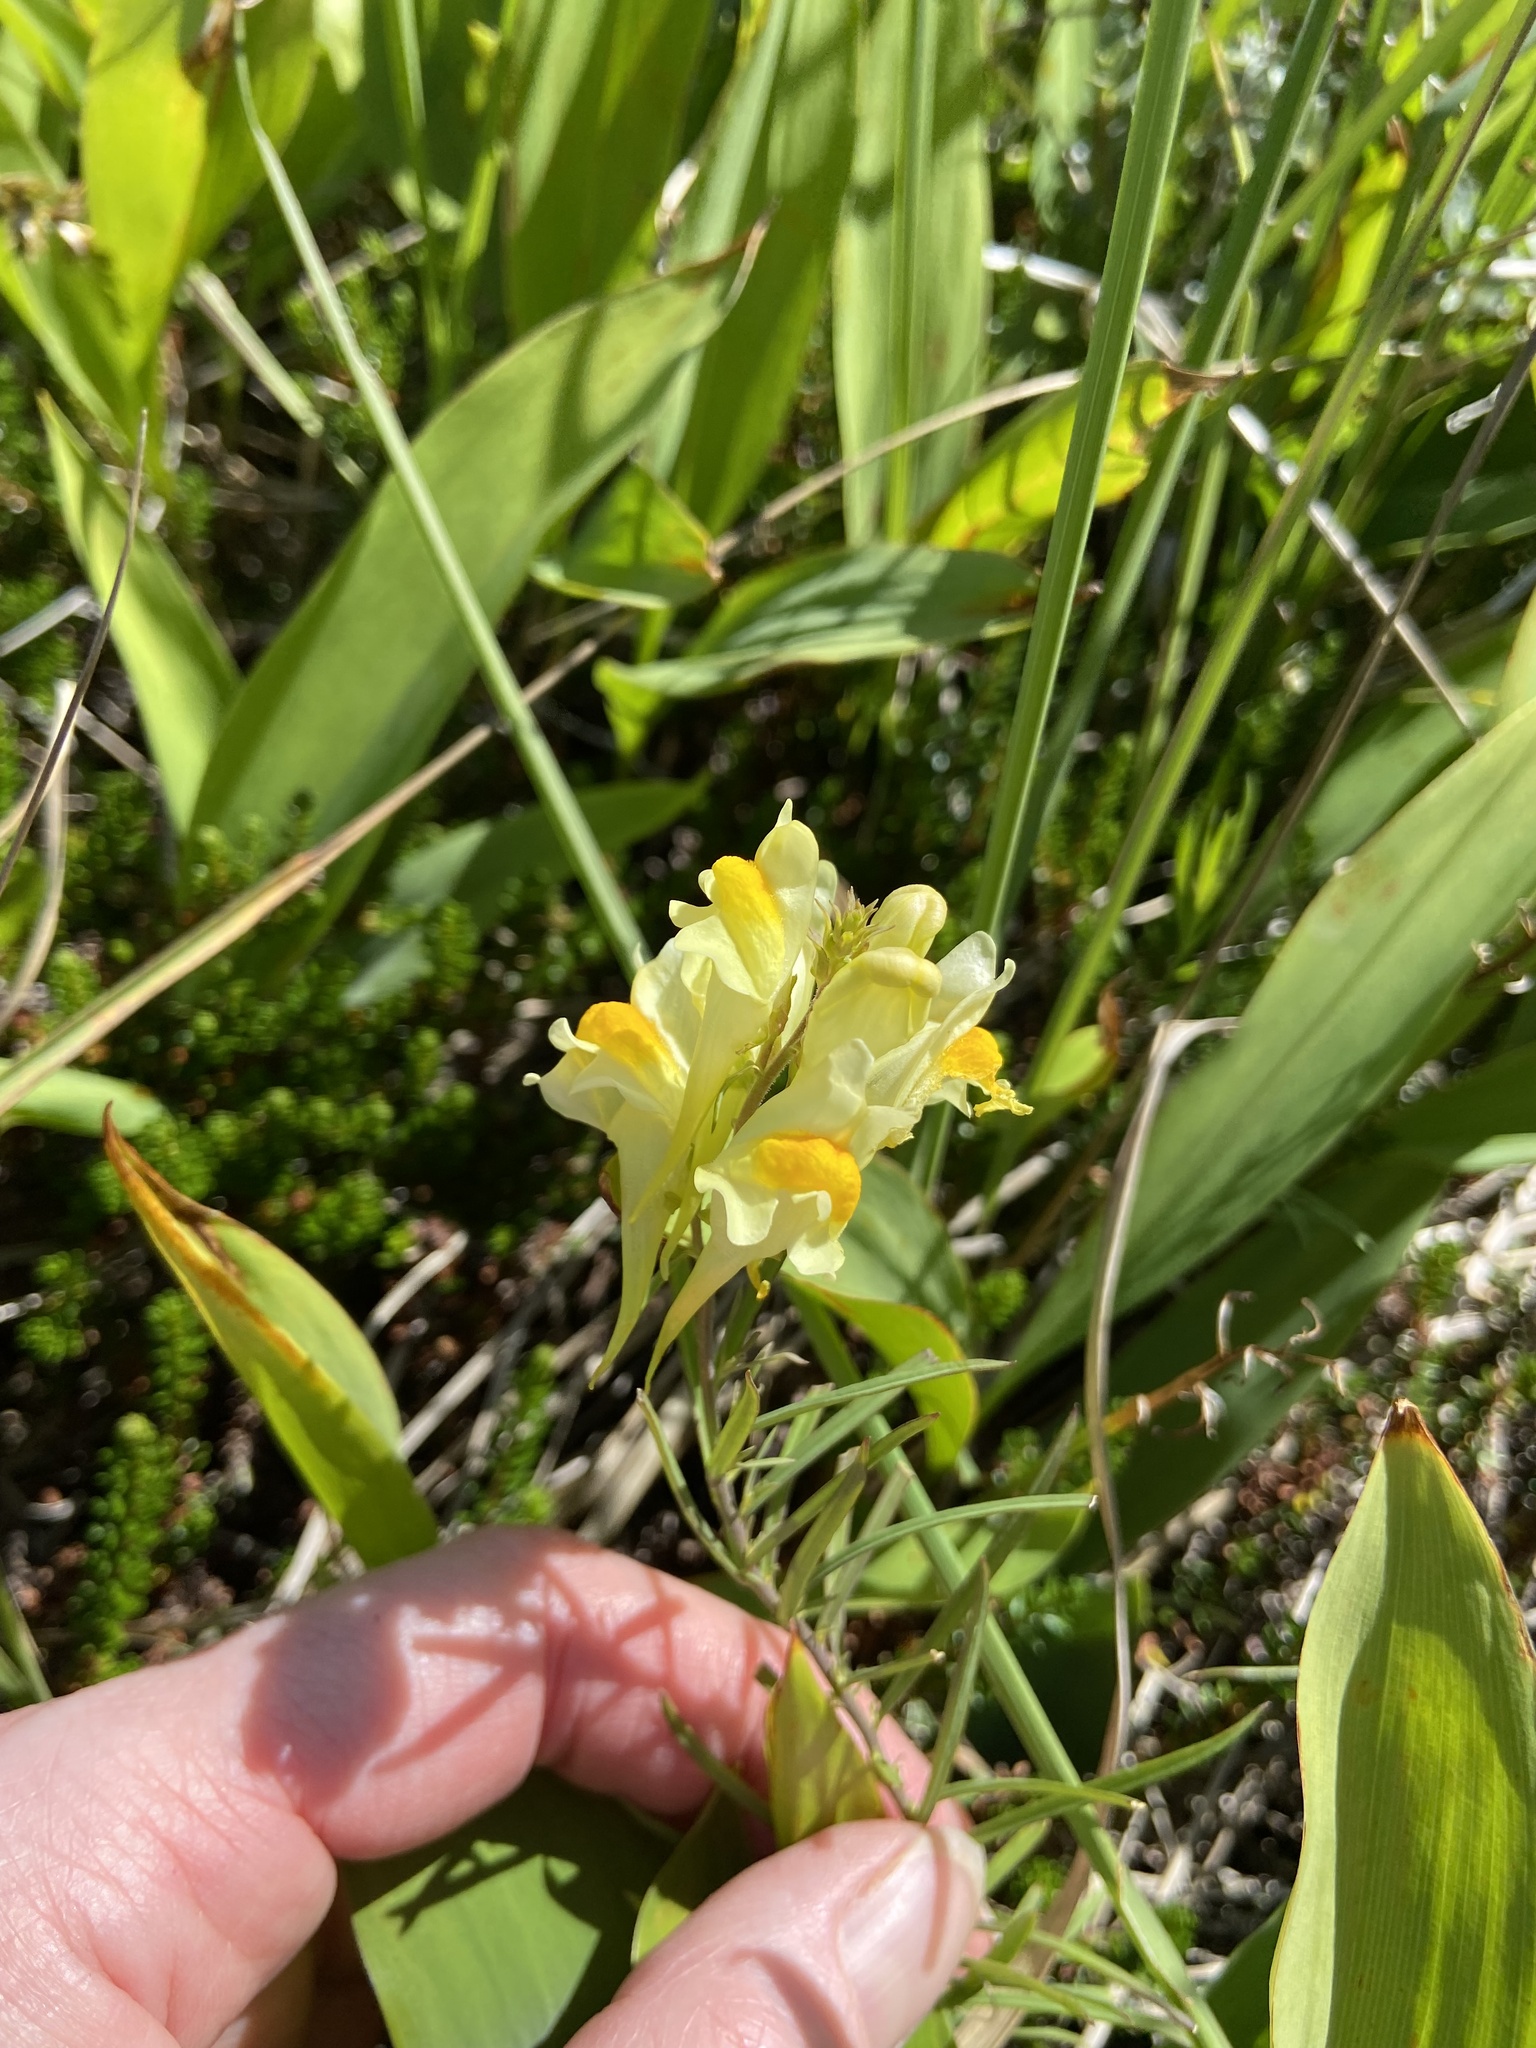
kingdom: Plantae
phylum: Tracheophyta
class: Magnoliopsida
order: Lamiales
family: Plantaginaceae
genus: Linaria
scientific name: Linaria vulgaris
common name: Butter and eggs
